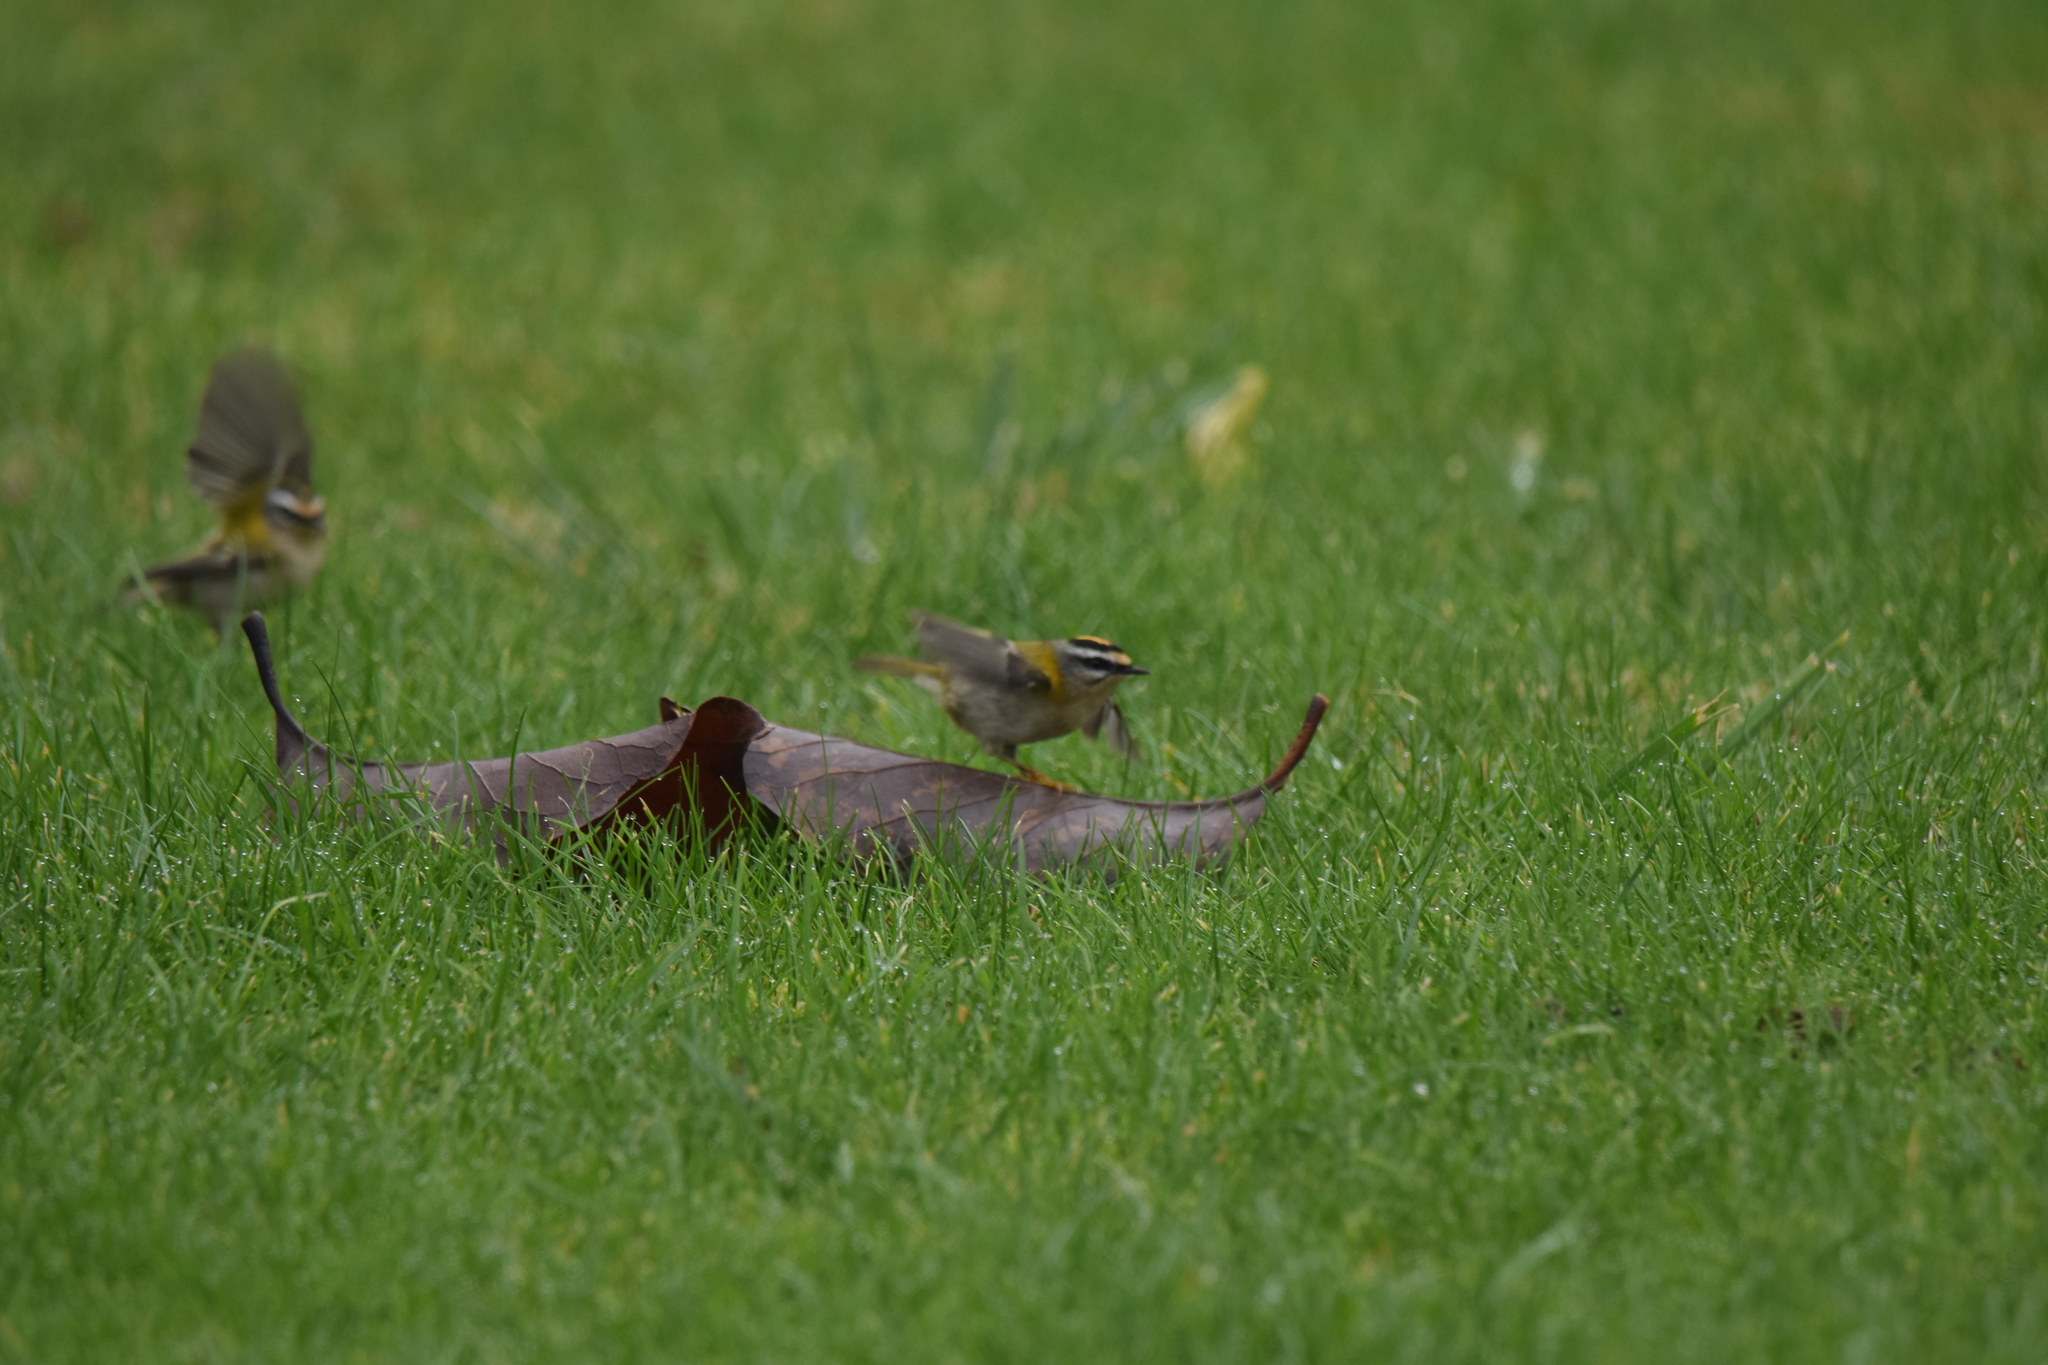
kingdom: Animalia
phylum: Chordata
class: Aves
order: Passeriformes
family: Regulidae
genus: Regulus
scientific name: Regulus ignicapilla
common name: Firecrest
